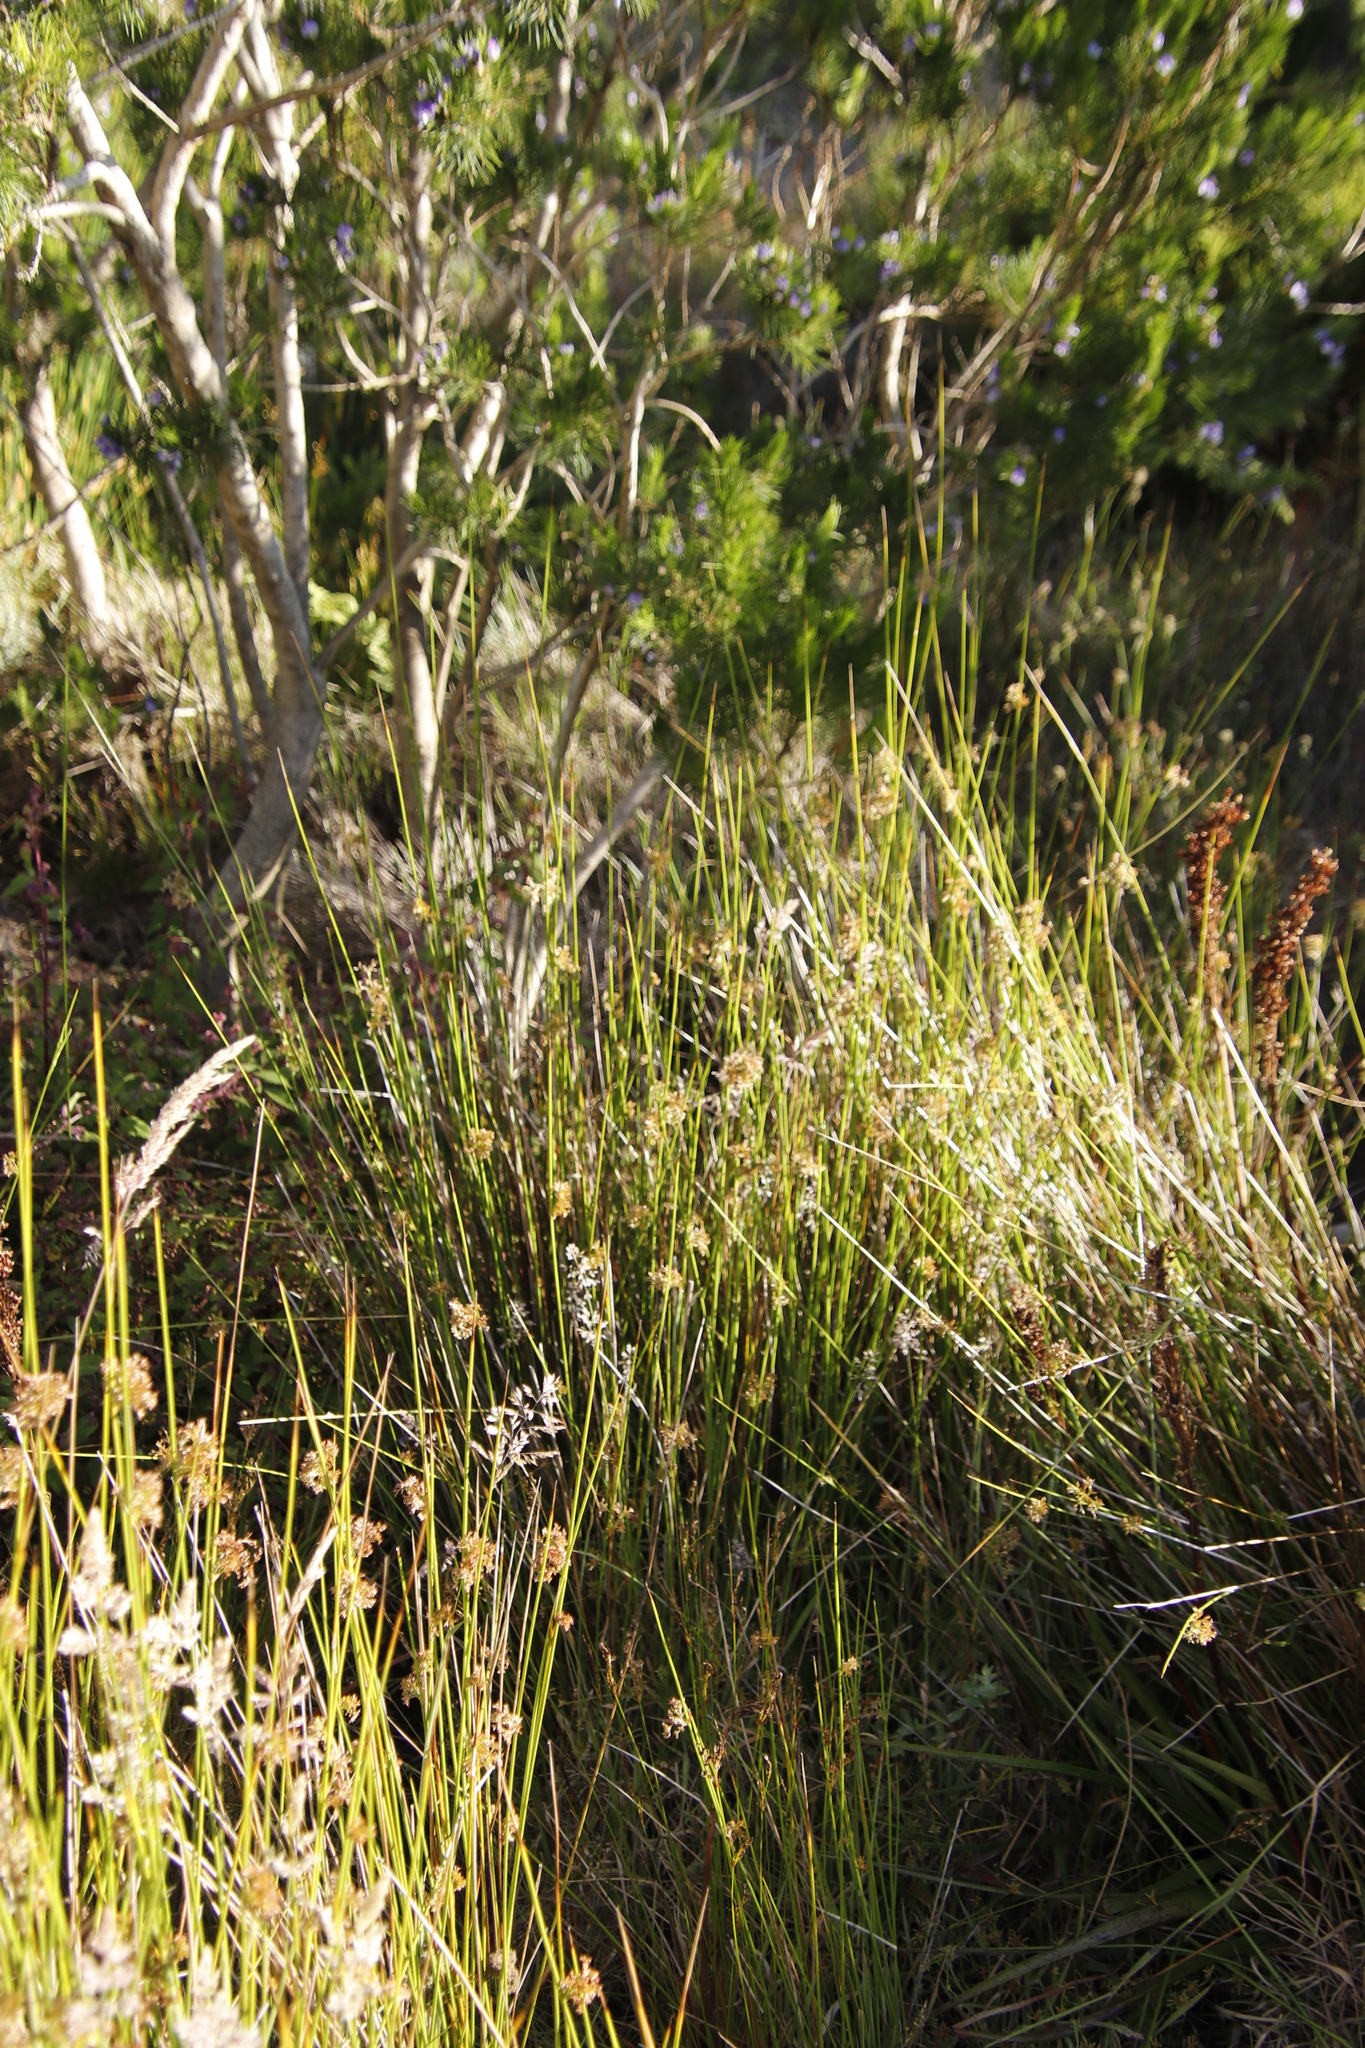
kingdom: Plantae
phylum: Tracheophyta
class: Liliopsida
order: Poales
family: Juncaceae
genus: Juncus
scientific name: Juncus effusus
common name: Soft rush
